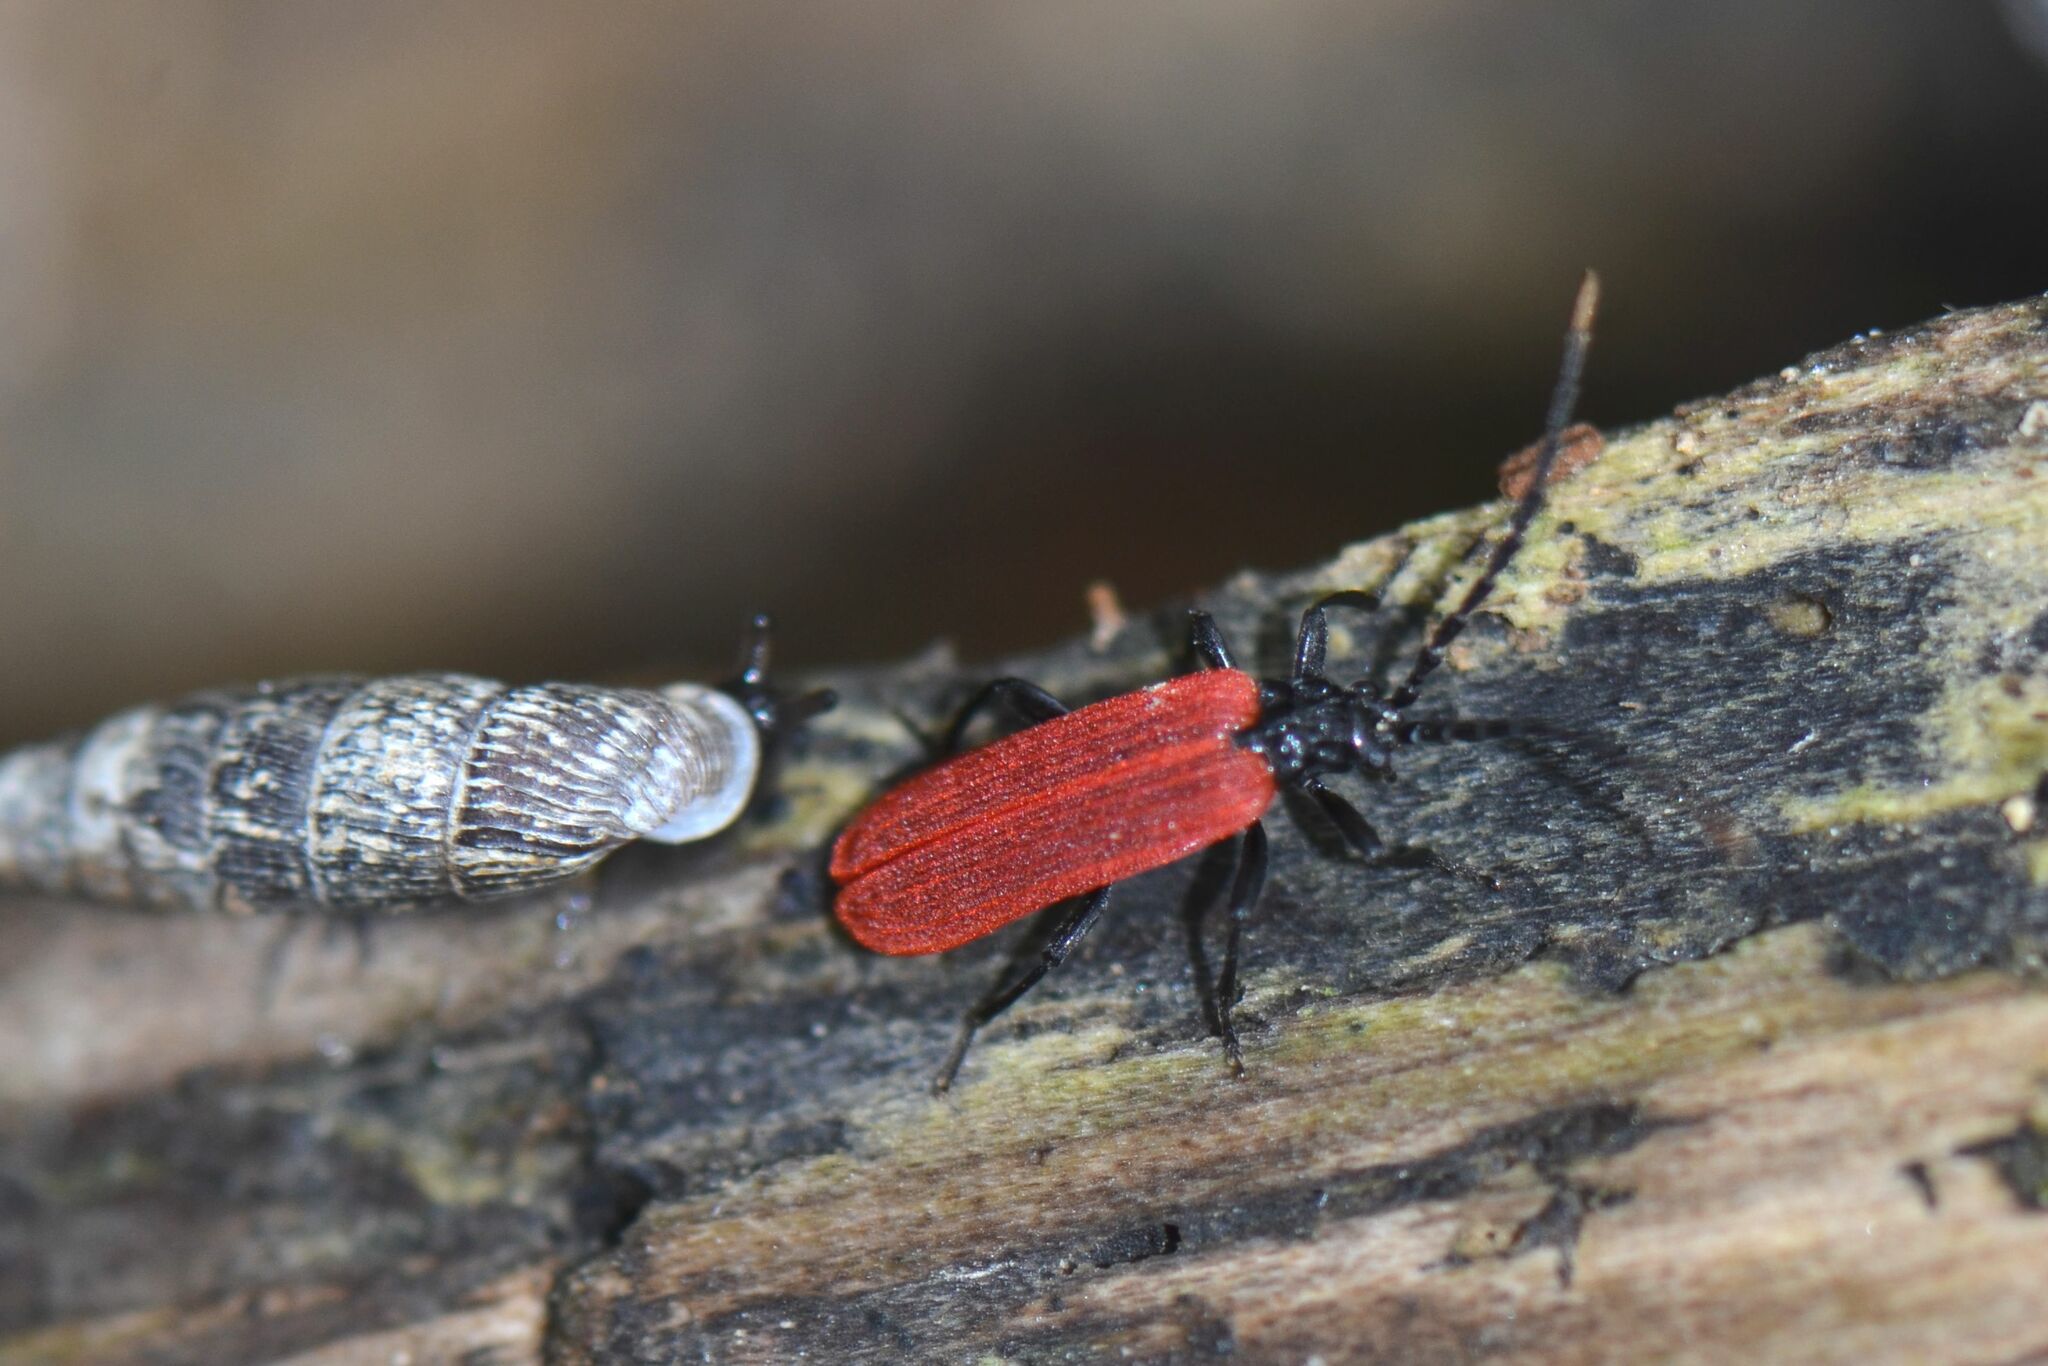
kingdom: Animalia
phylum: Arthropoda
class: Insecta
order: Coleoptera
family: Lycidae
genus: Platycis
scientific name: Platycis minutus
